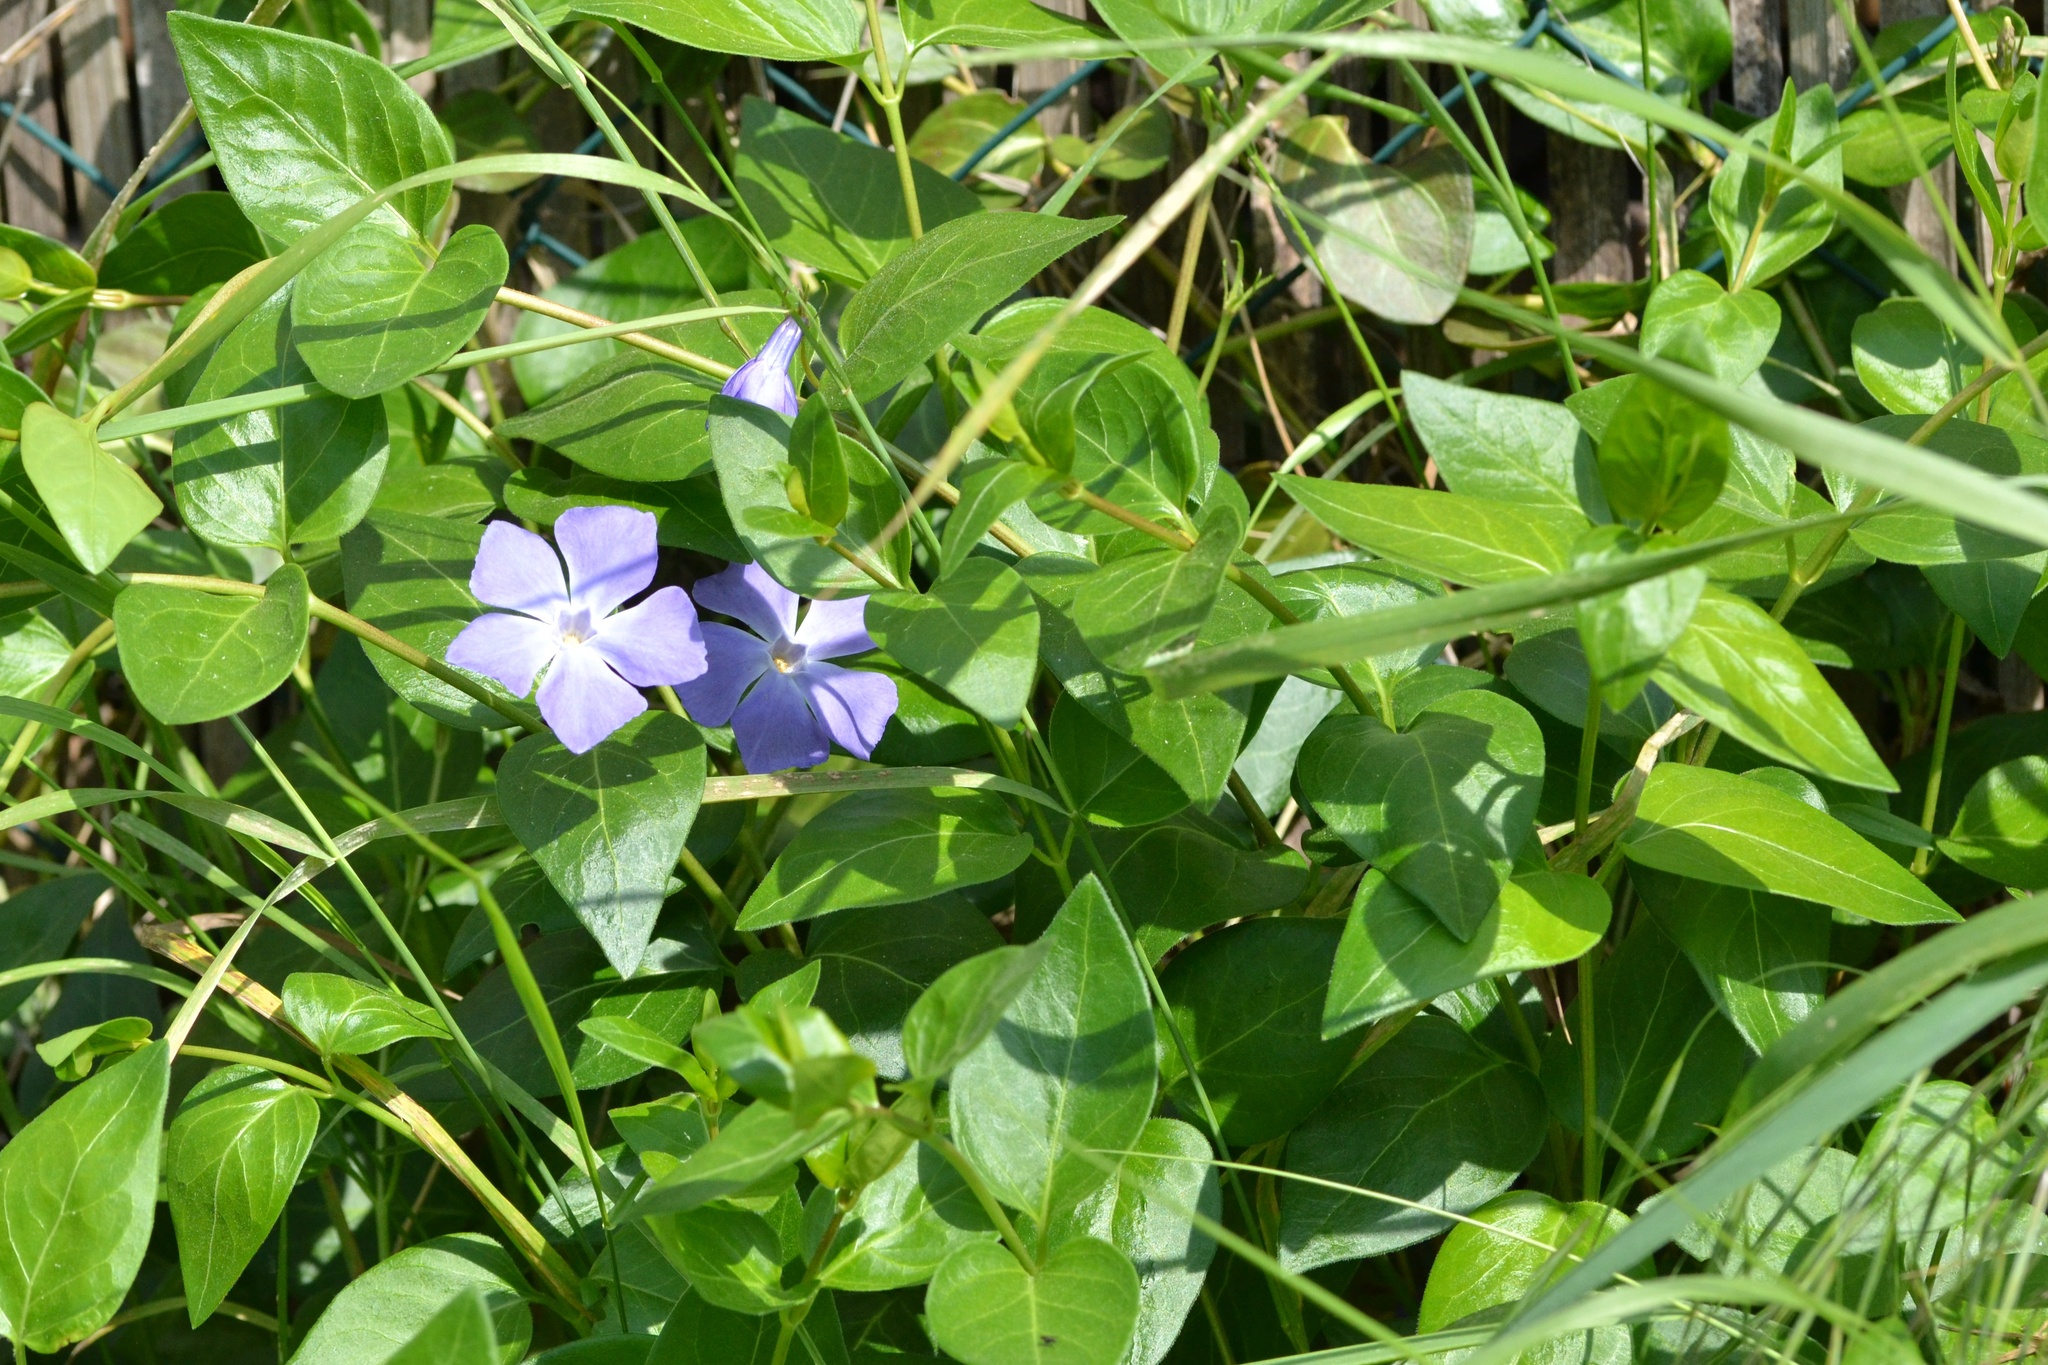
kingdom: Plantae
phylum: Tracheophyta
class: Magnoliopsida
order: Gentianales
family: Apocynaceae
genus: Vinca
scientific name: Vinca major
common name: Greater periwinkle
